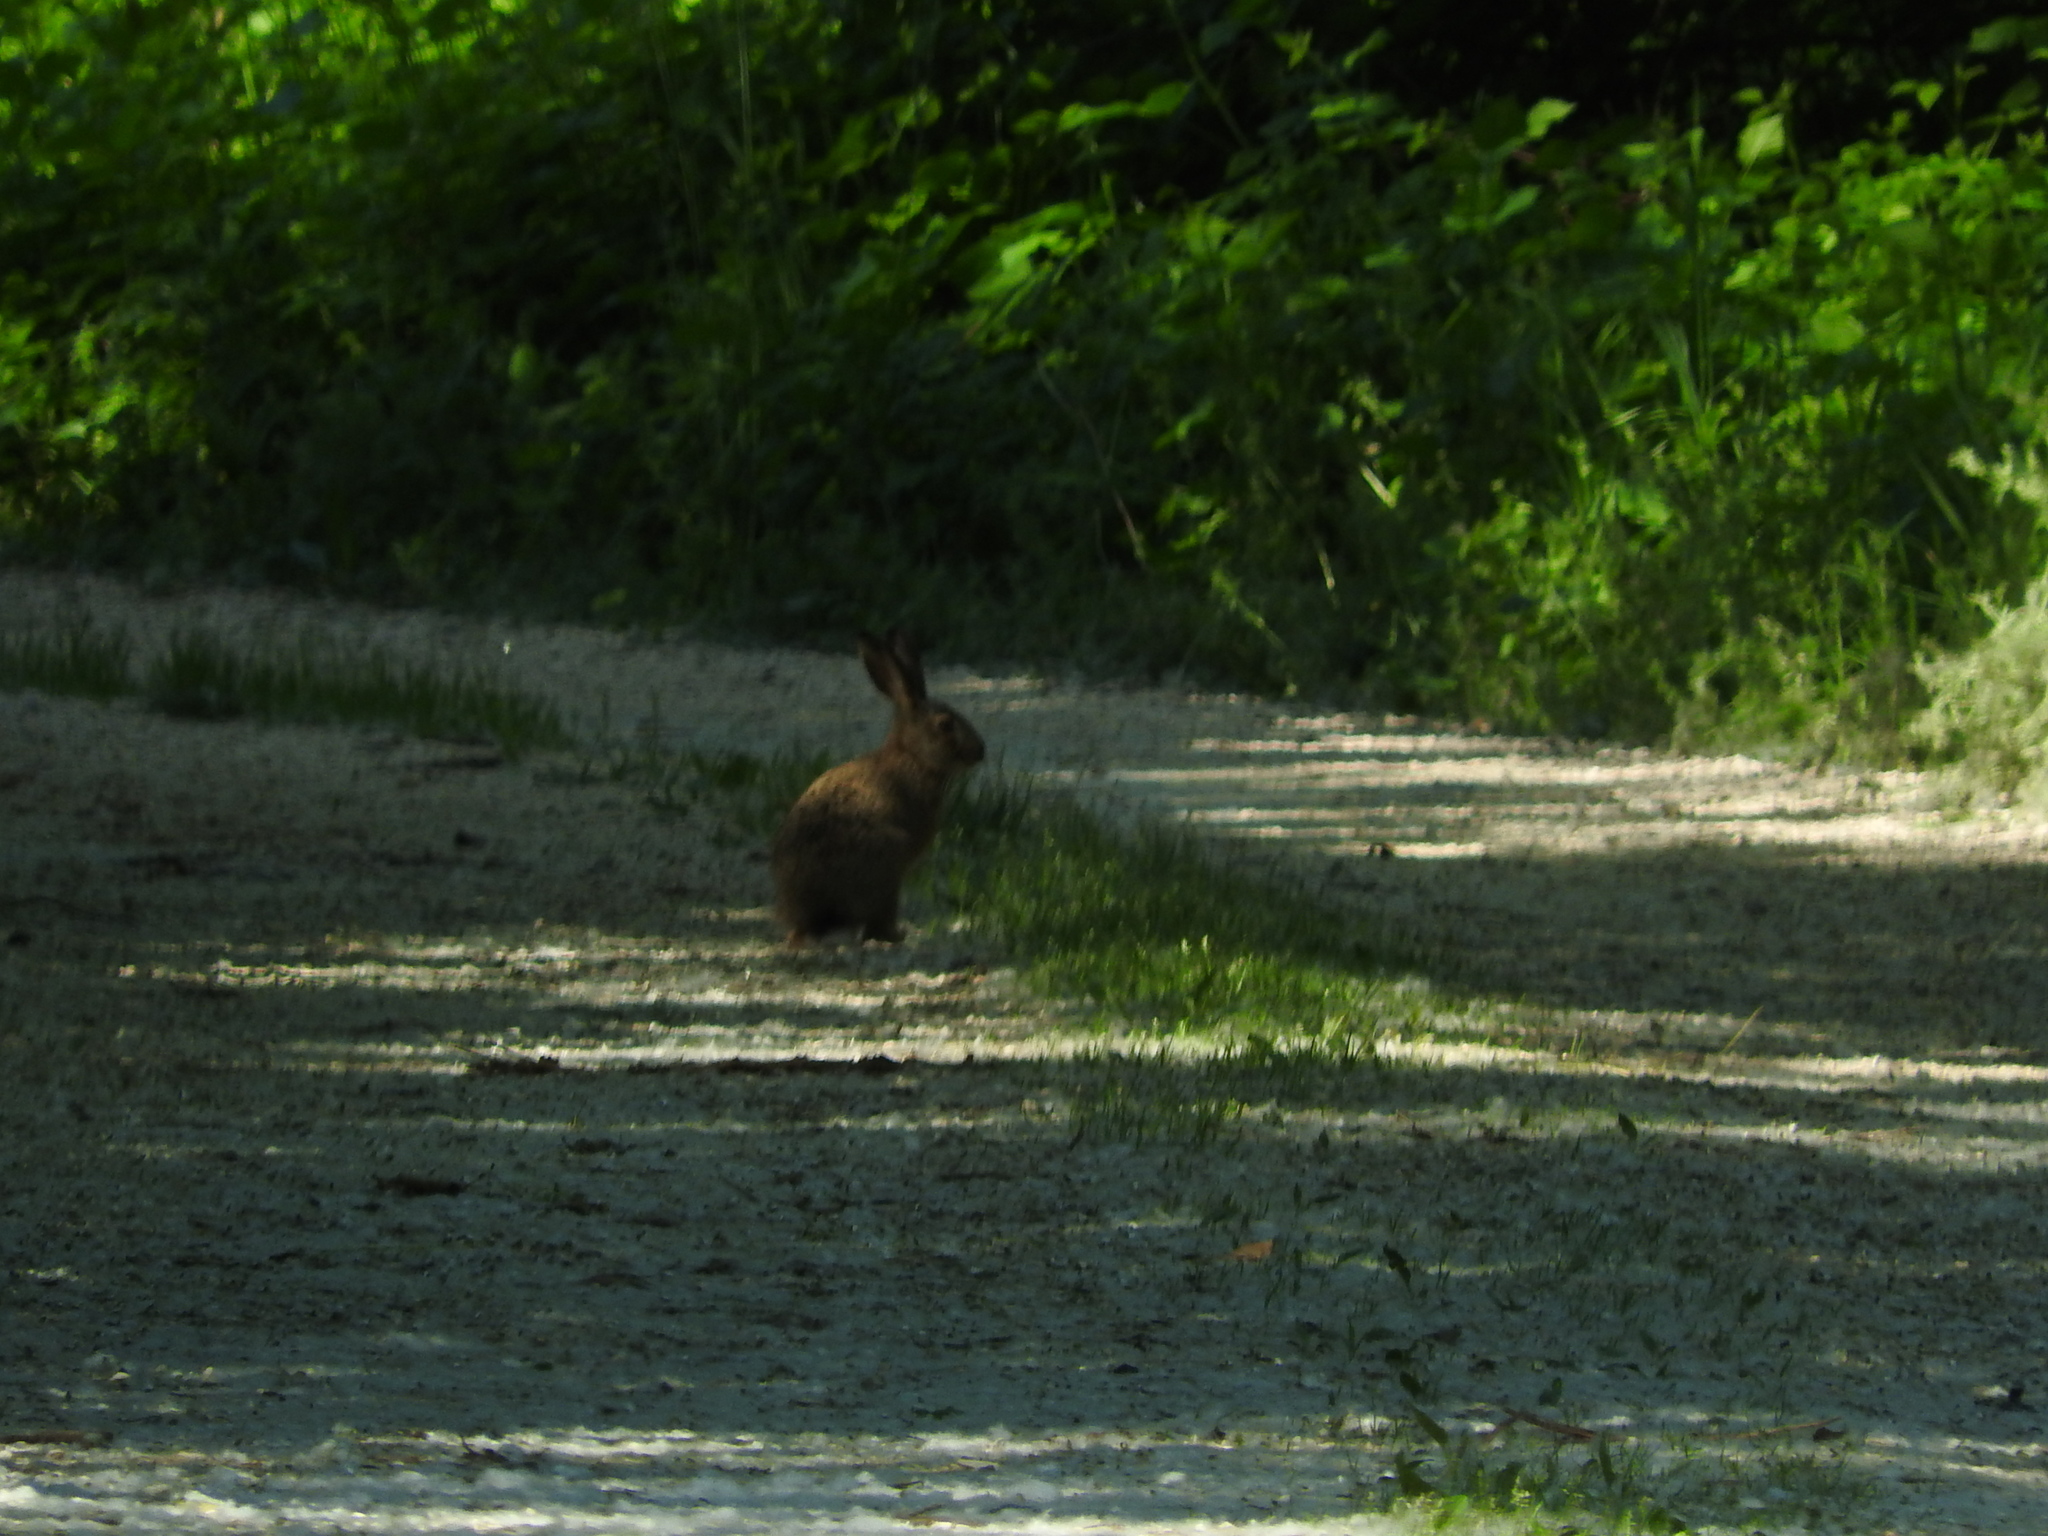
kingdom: Animalia
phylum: Chordata
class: Mammalia
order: Lagomorpha
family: Leporidae
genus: Lepus
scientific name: Lepus europaeus
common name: European hare
